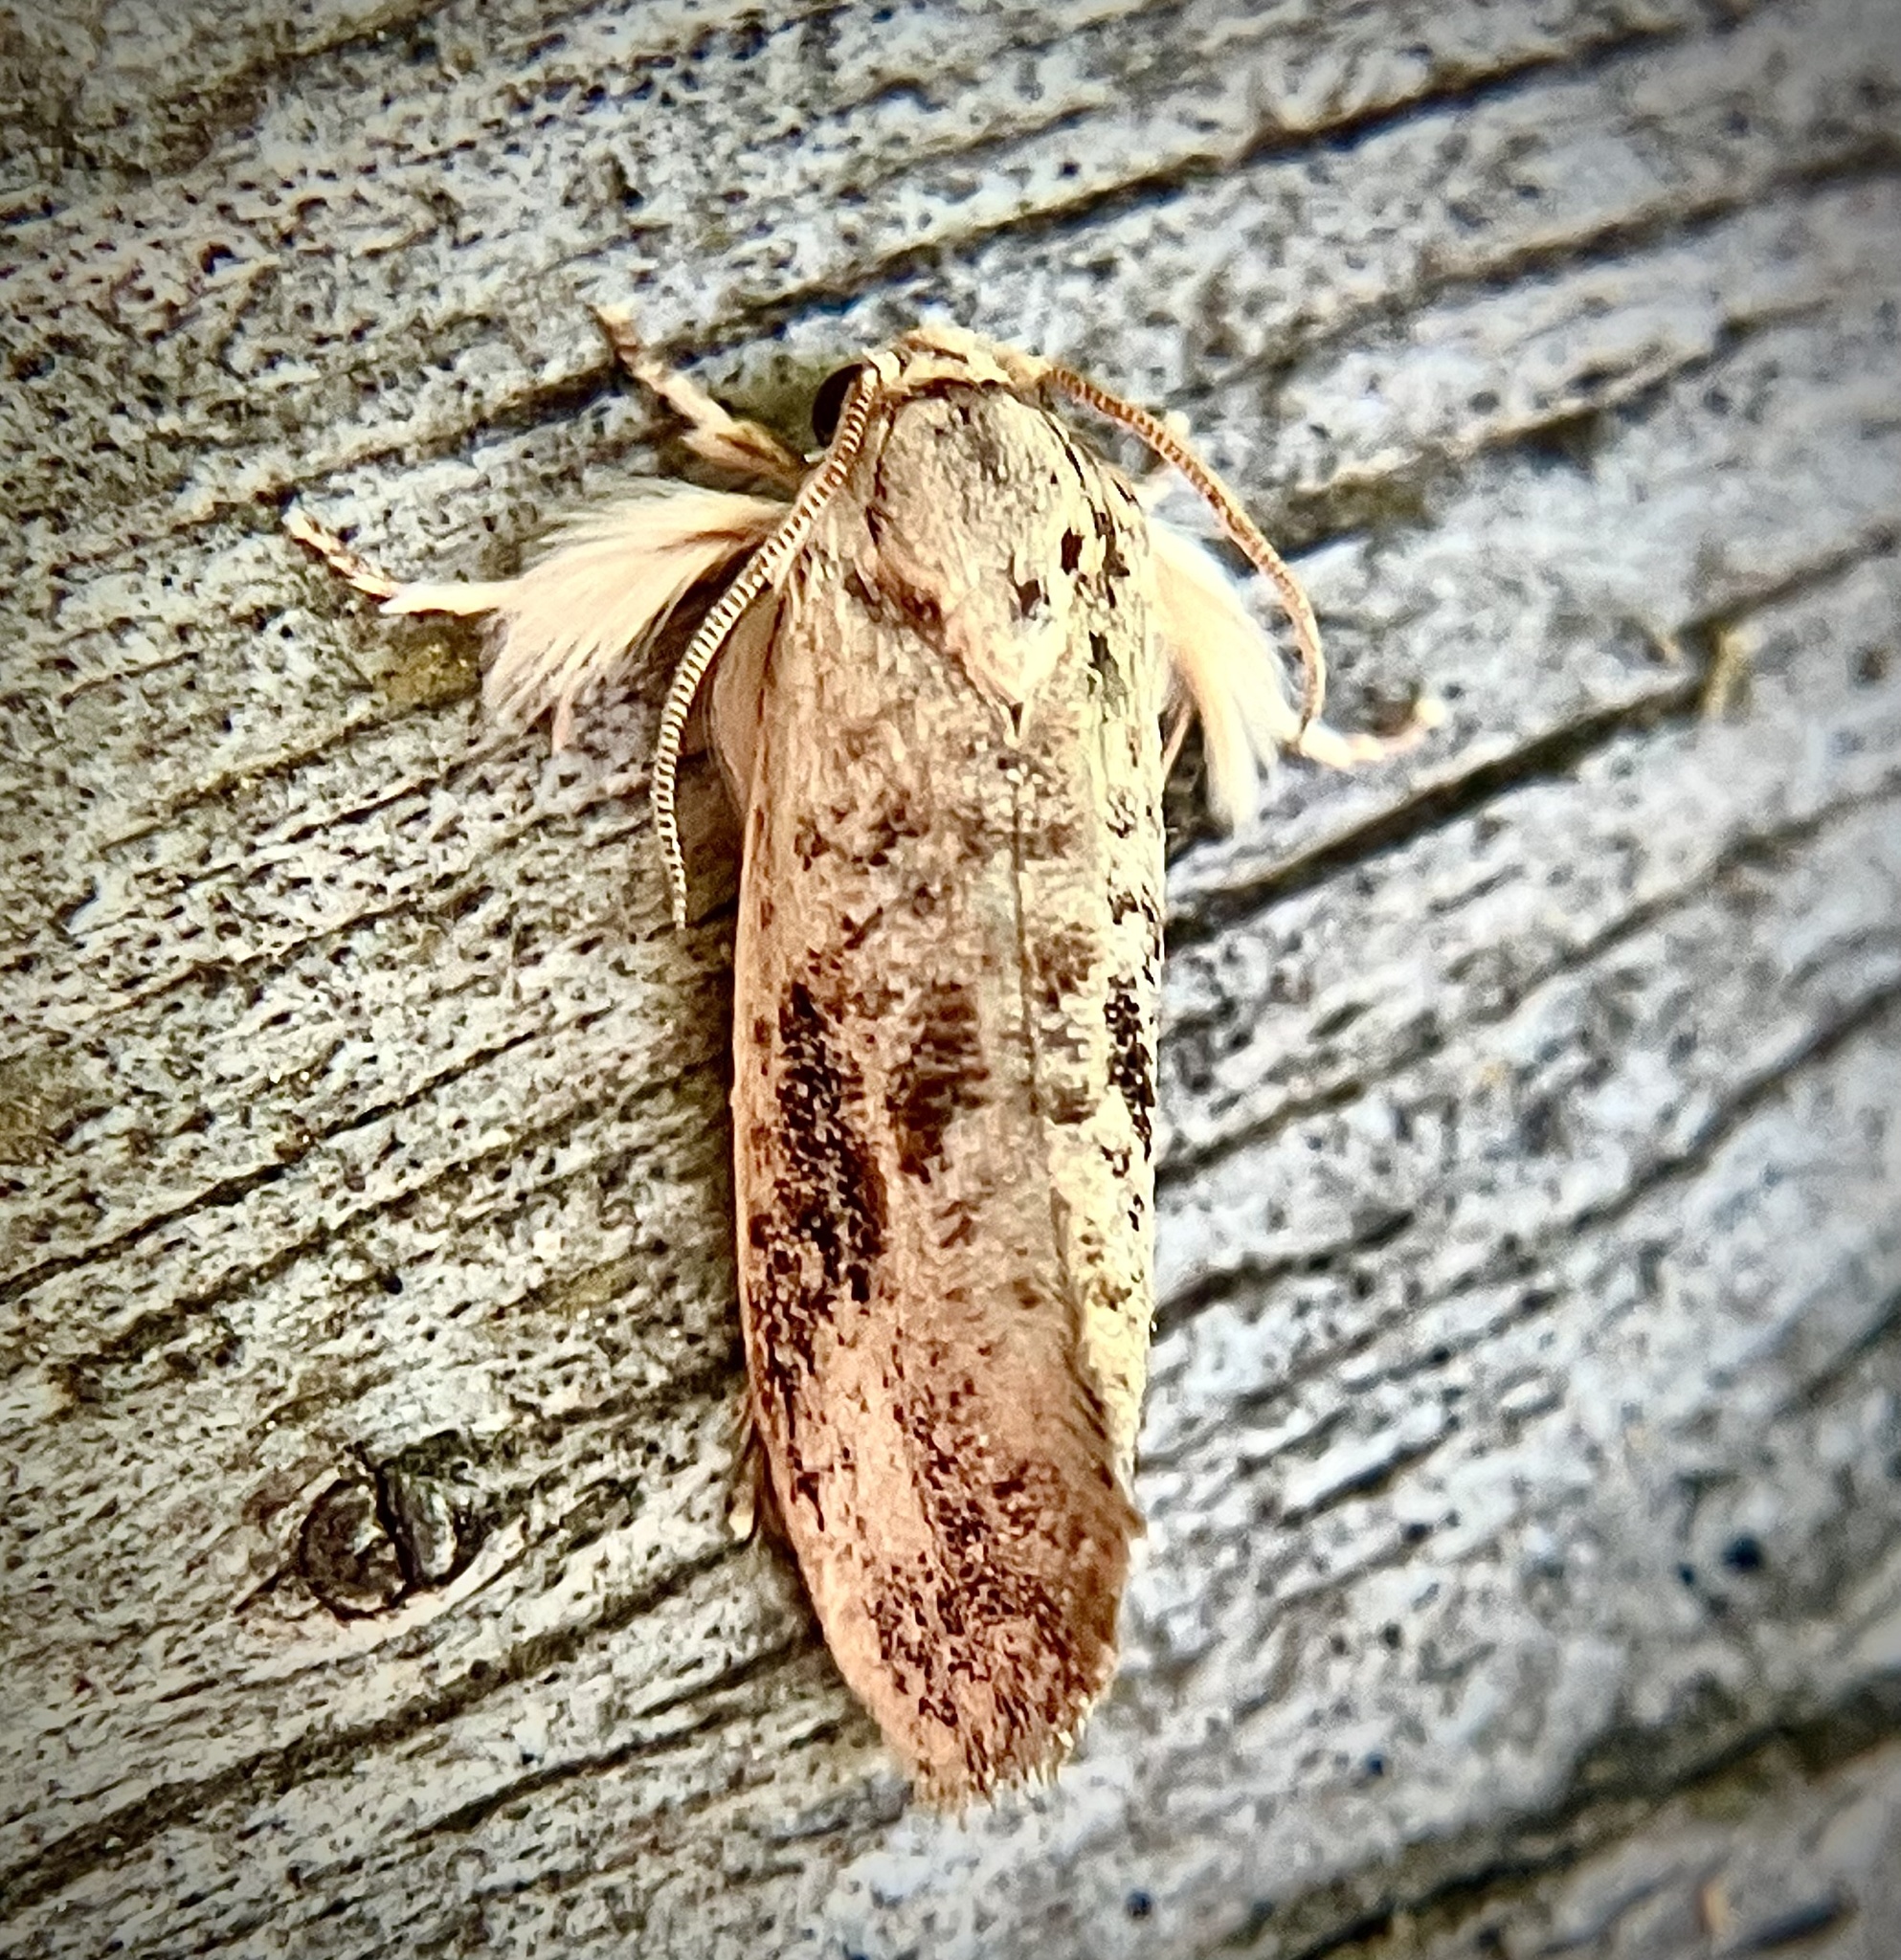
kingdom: Animalia
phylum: Arthropoda
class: Insecta
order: Lepidoptera
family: Tineidae
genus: Acrolophus
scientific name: Acrolophus mycetophagus
